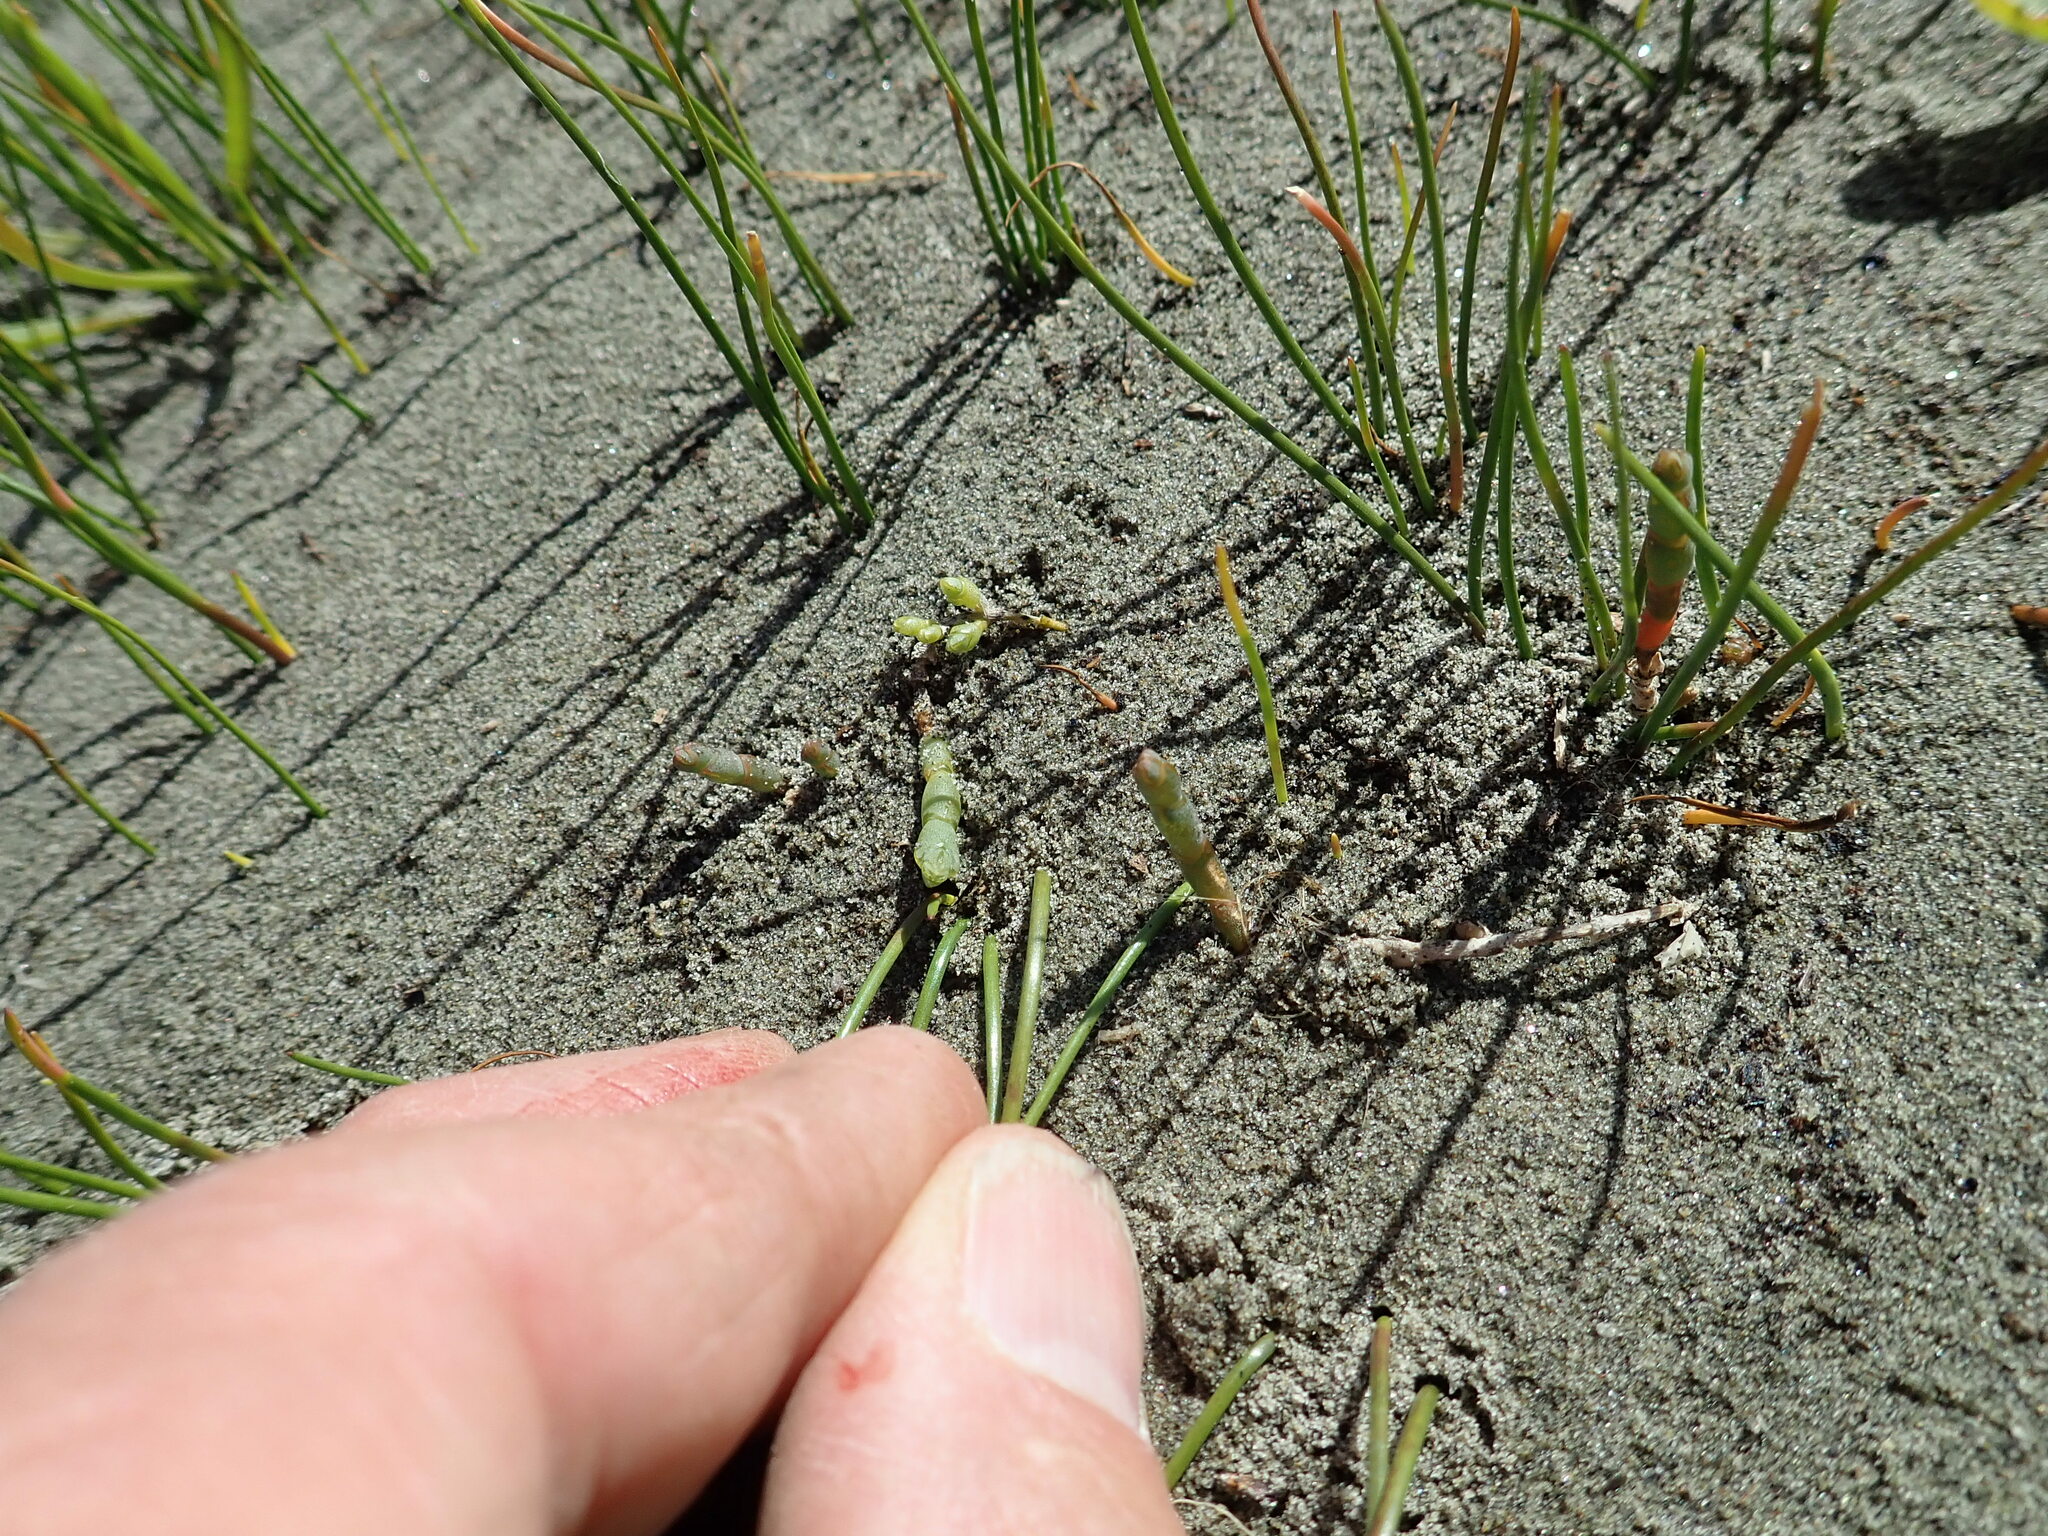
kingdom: Plantae
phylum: Tracheophyta
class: Magnoliopsida
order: Caryophyllales
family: Amaranthaceae
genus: Salicornia
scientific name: Salicornia quinqueflora
